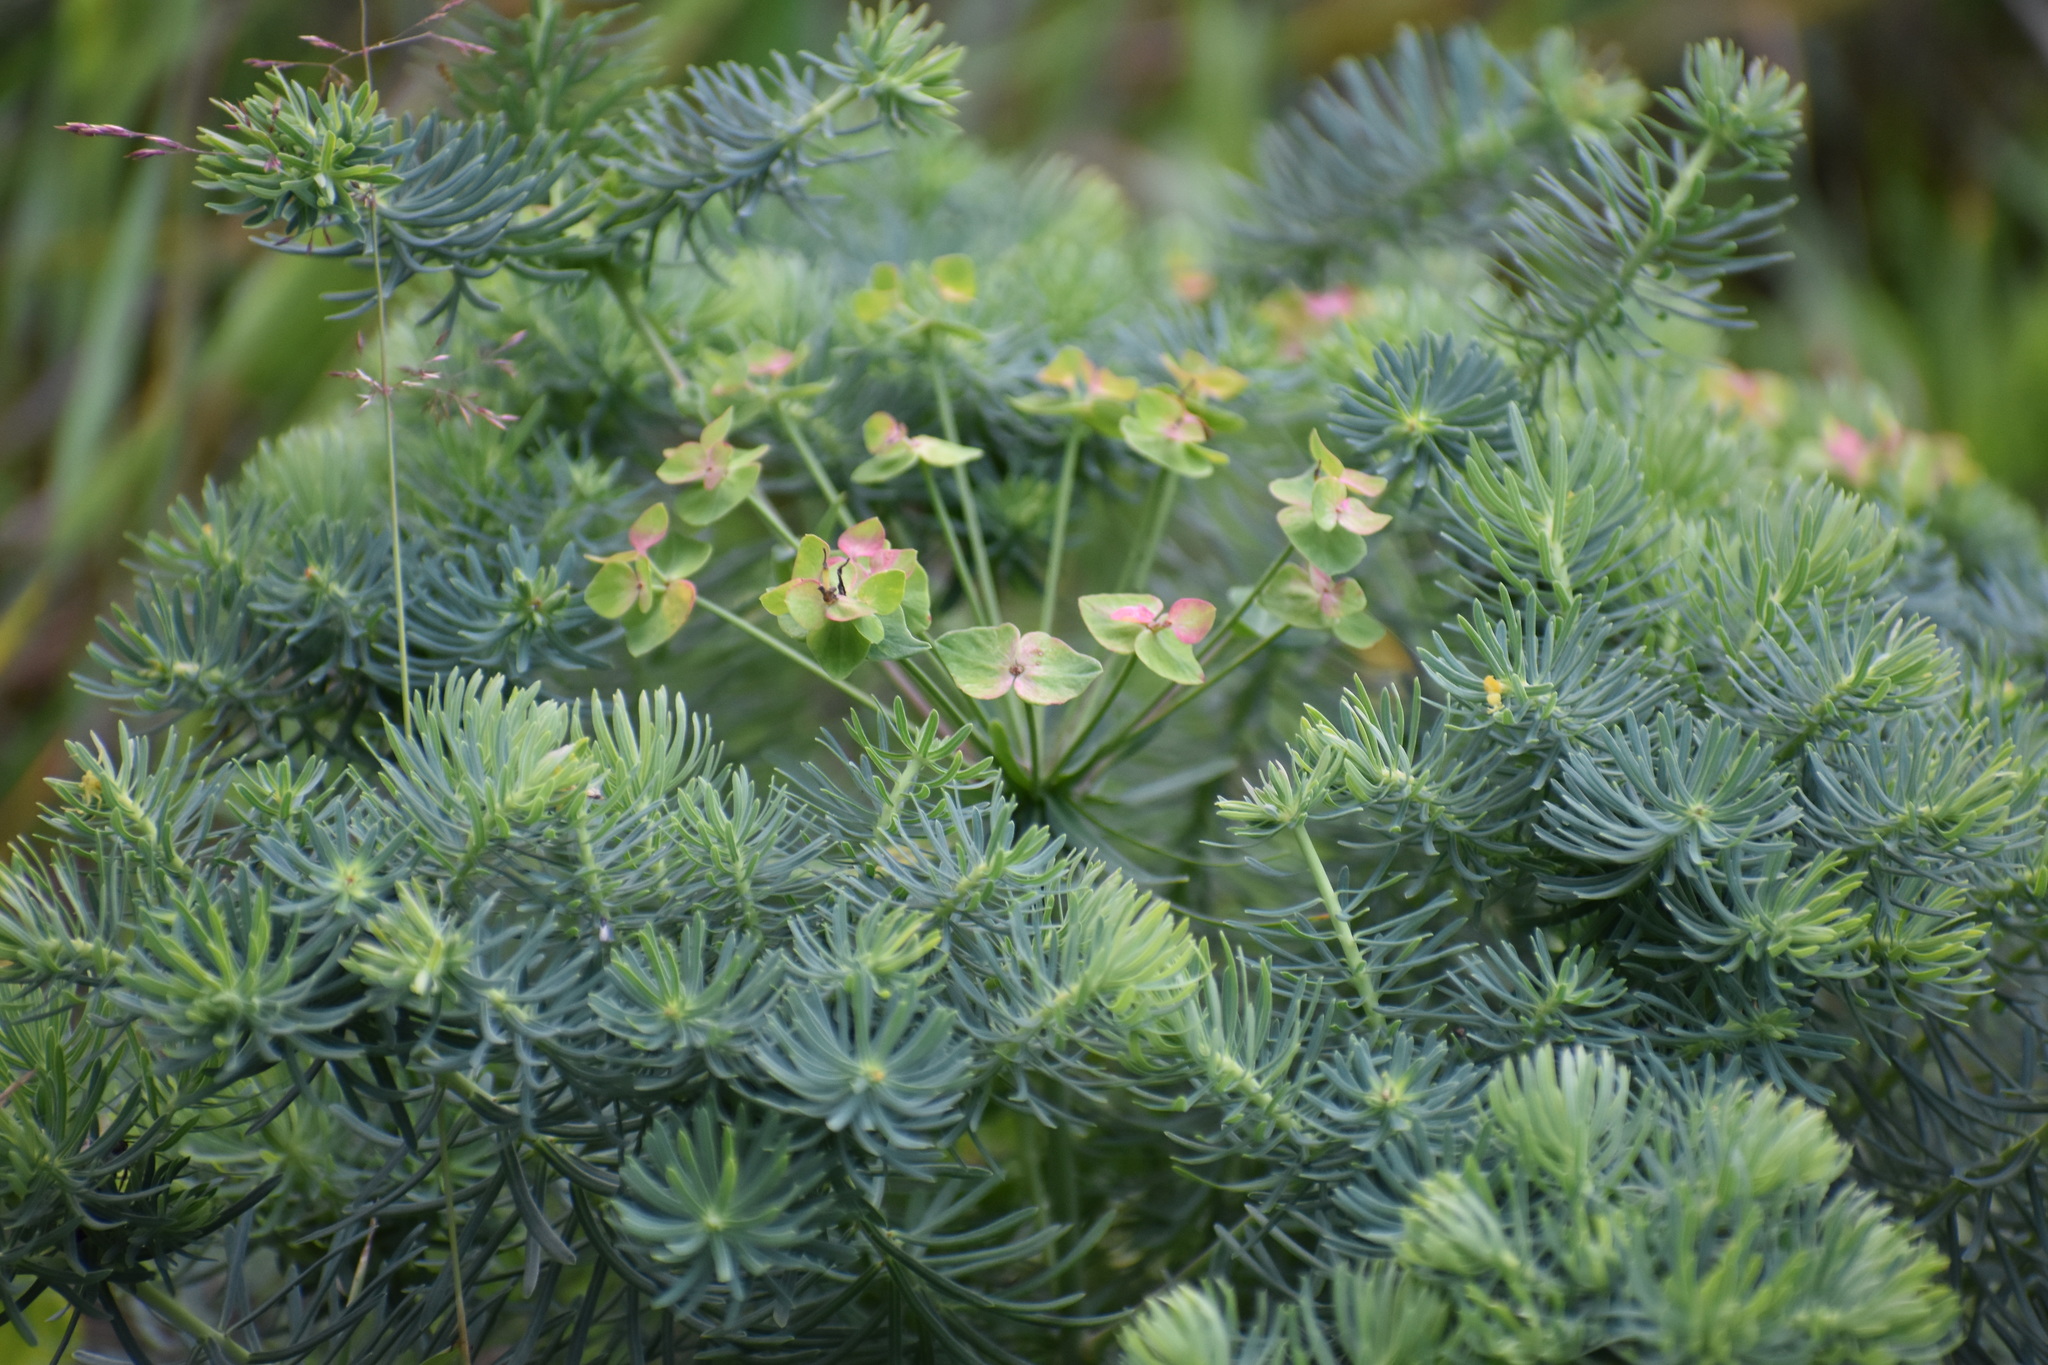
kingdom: Plantae
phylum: Tracheophyta
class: Magnoliopsida
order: Malpighiales
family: Euphorbiaceae
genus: Euphorbia
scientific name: Euphorbia cyparissias
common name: Cypress spurge
